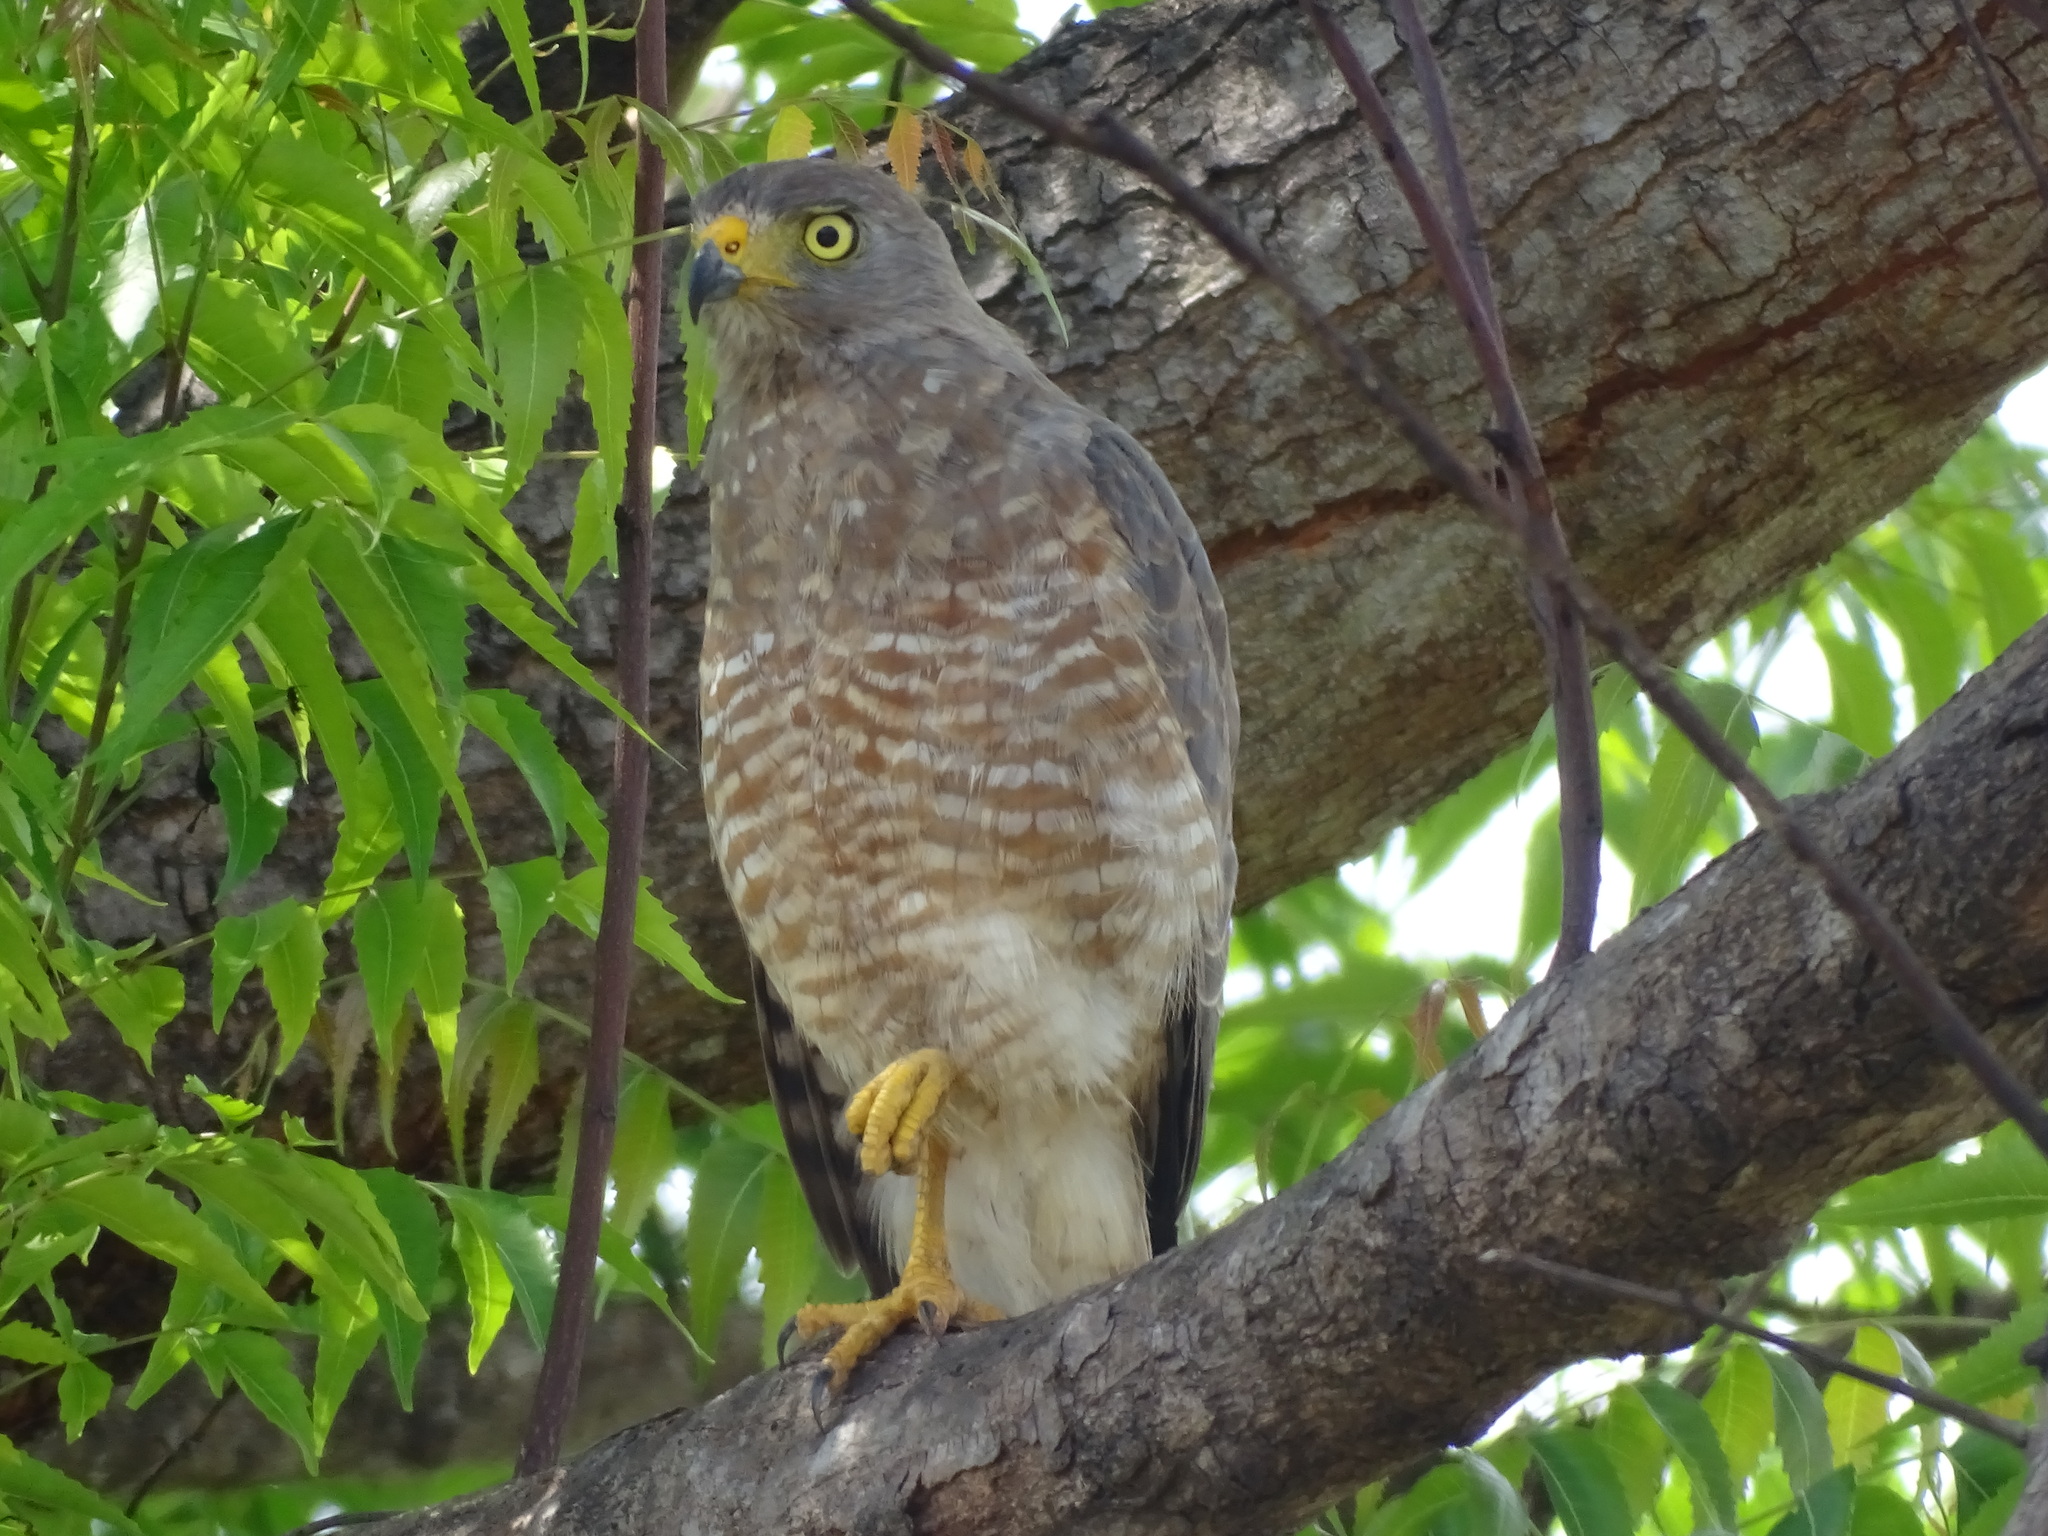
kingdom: Animalia
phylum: Chordata
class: Aves
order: Accipitriformes
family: Accipitridae
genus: Rupornis
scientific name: Rupornis magnirostris
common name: Roadside hawk
